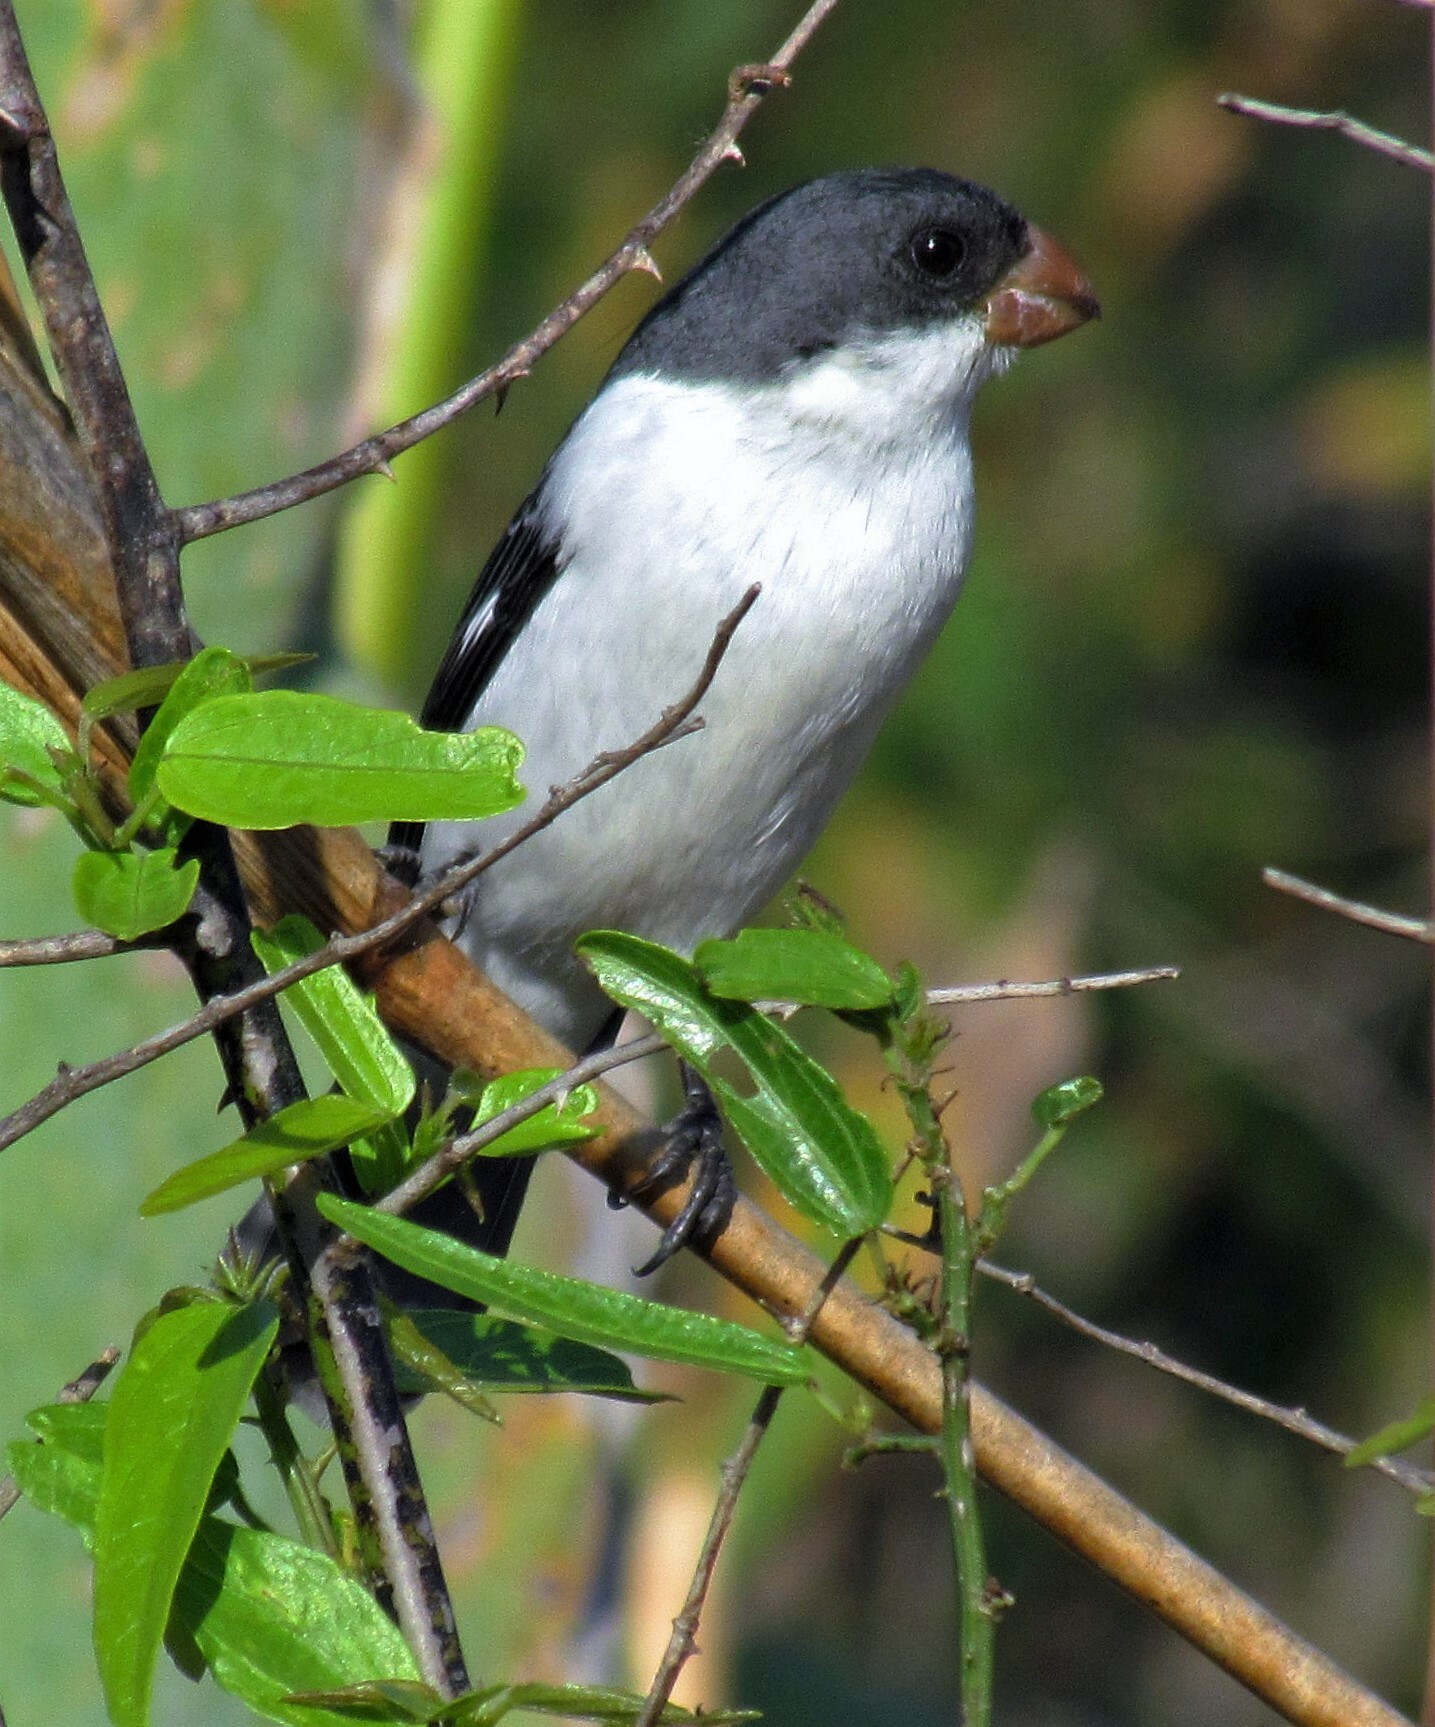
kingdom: Animalia
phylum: Chordata
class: Aves
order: Passeriformes
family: Thraupidae
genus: Sporophila
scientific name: Sporophila leucoptera
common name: White-bellied seedeater
